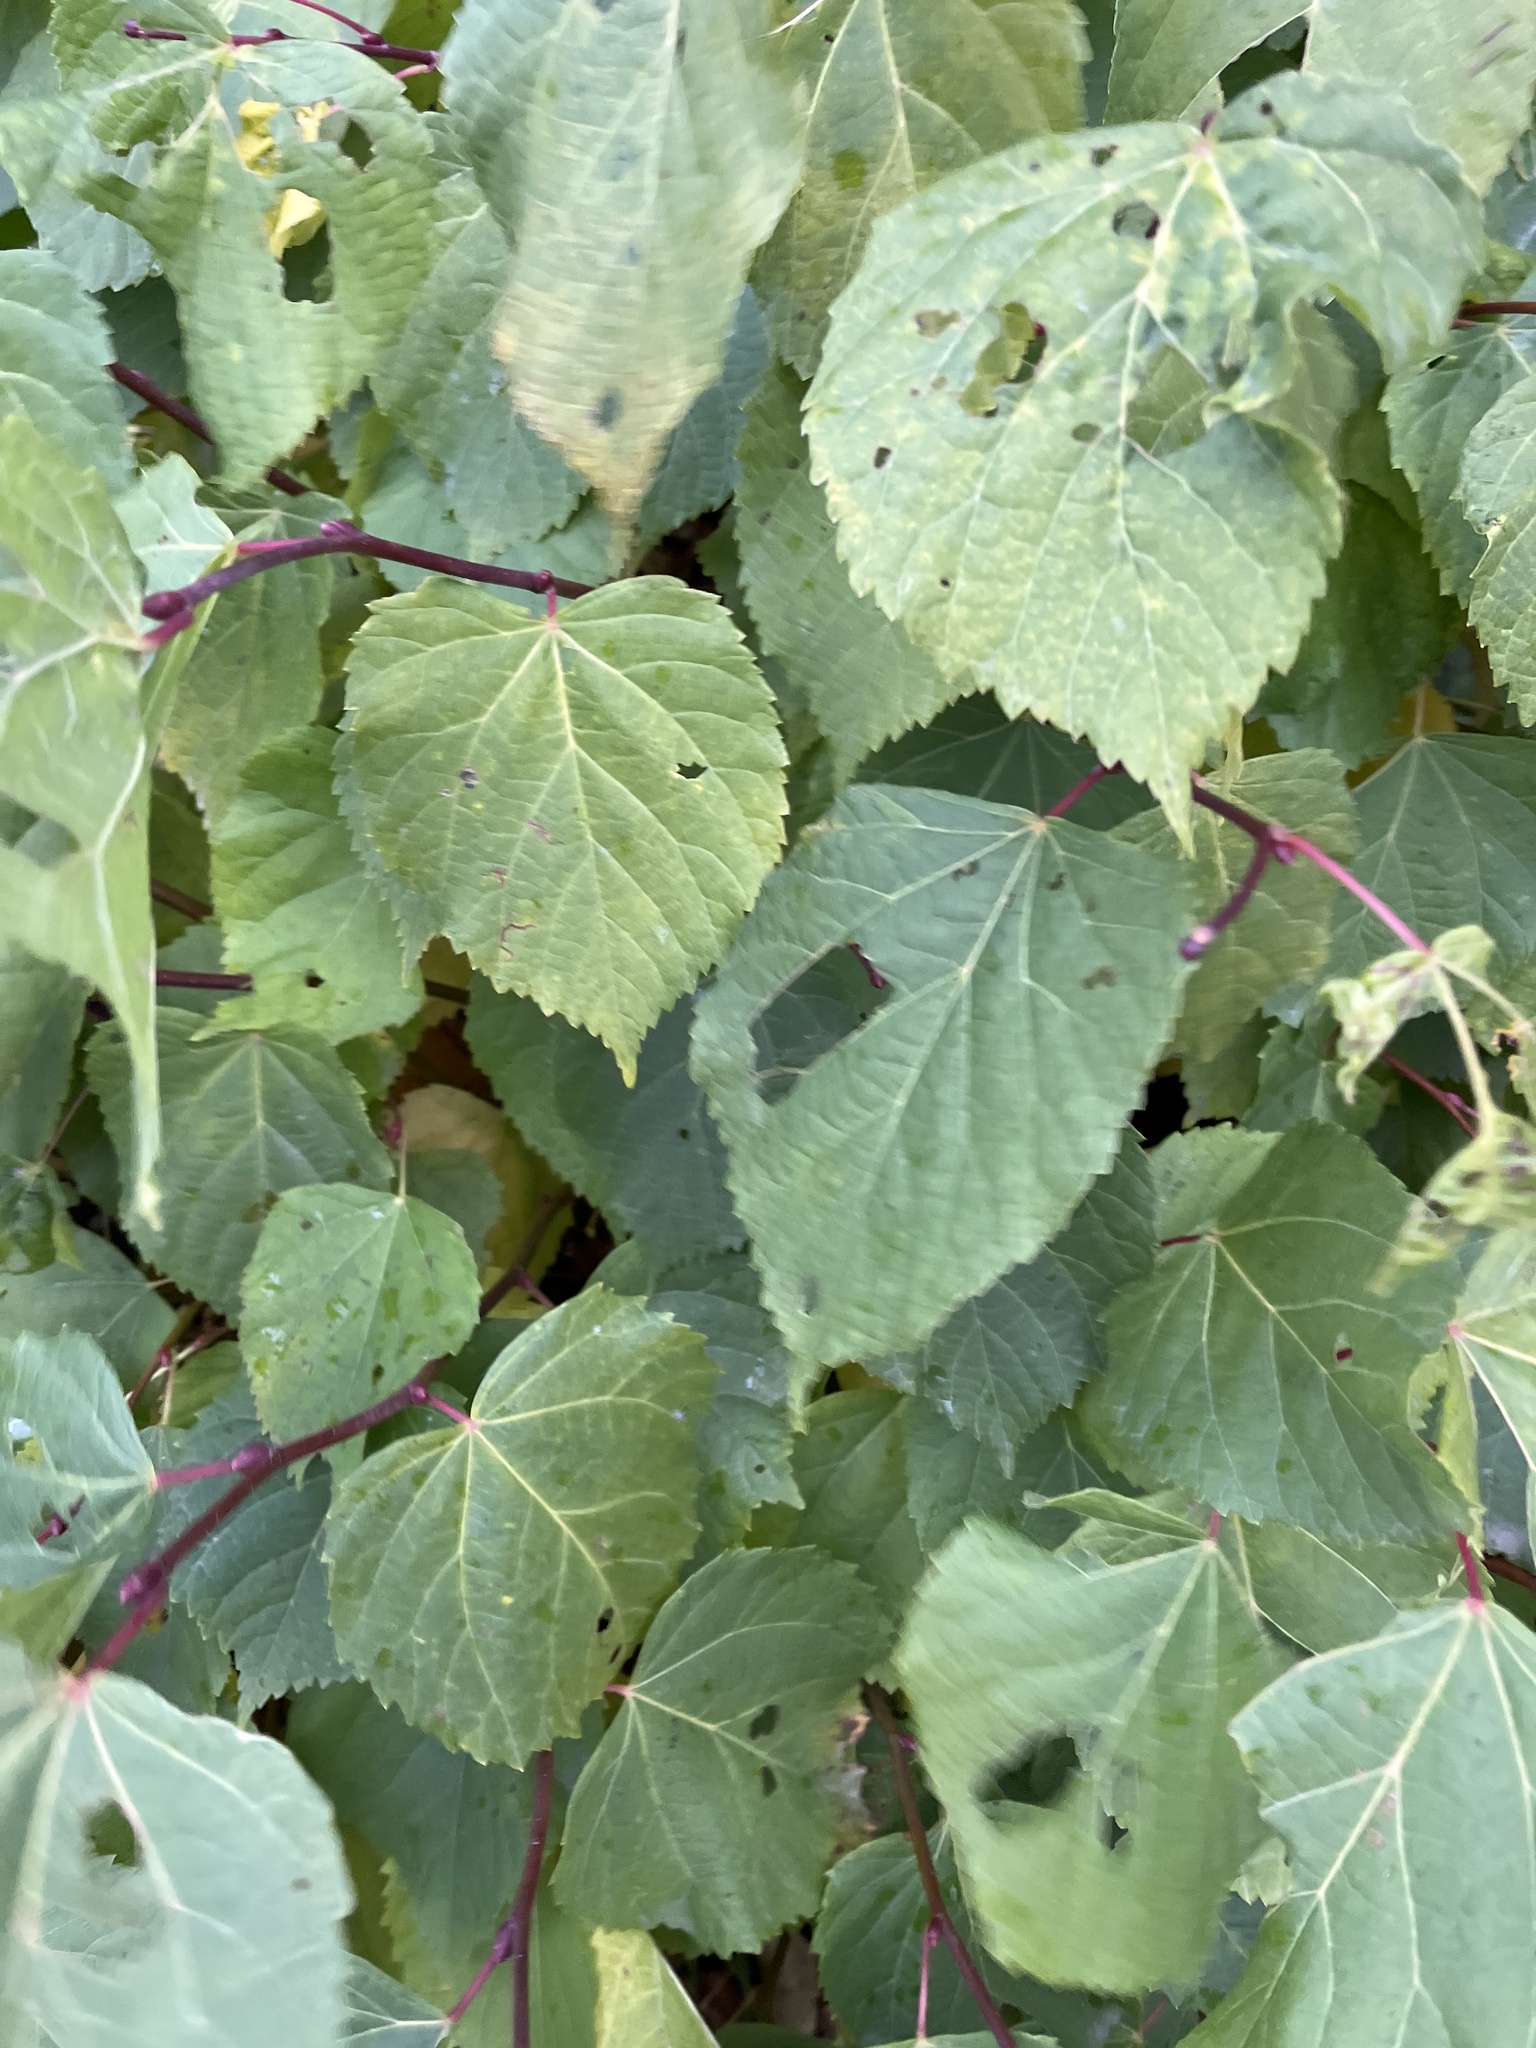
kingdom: Plantae
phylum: Tracheophyta
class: Magnoliopsida
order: Malvales
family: Malvaceae
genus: Tilia
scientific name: Tilia europaea
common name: European linden
